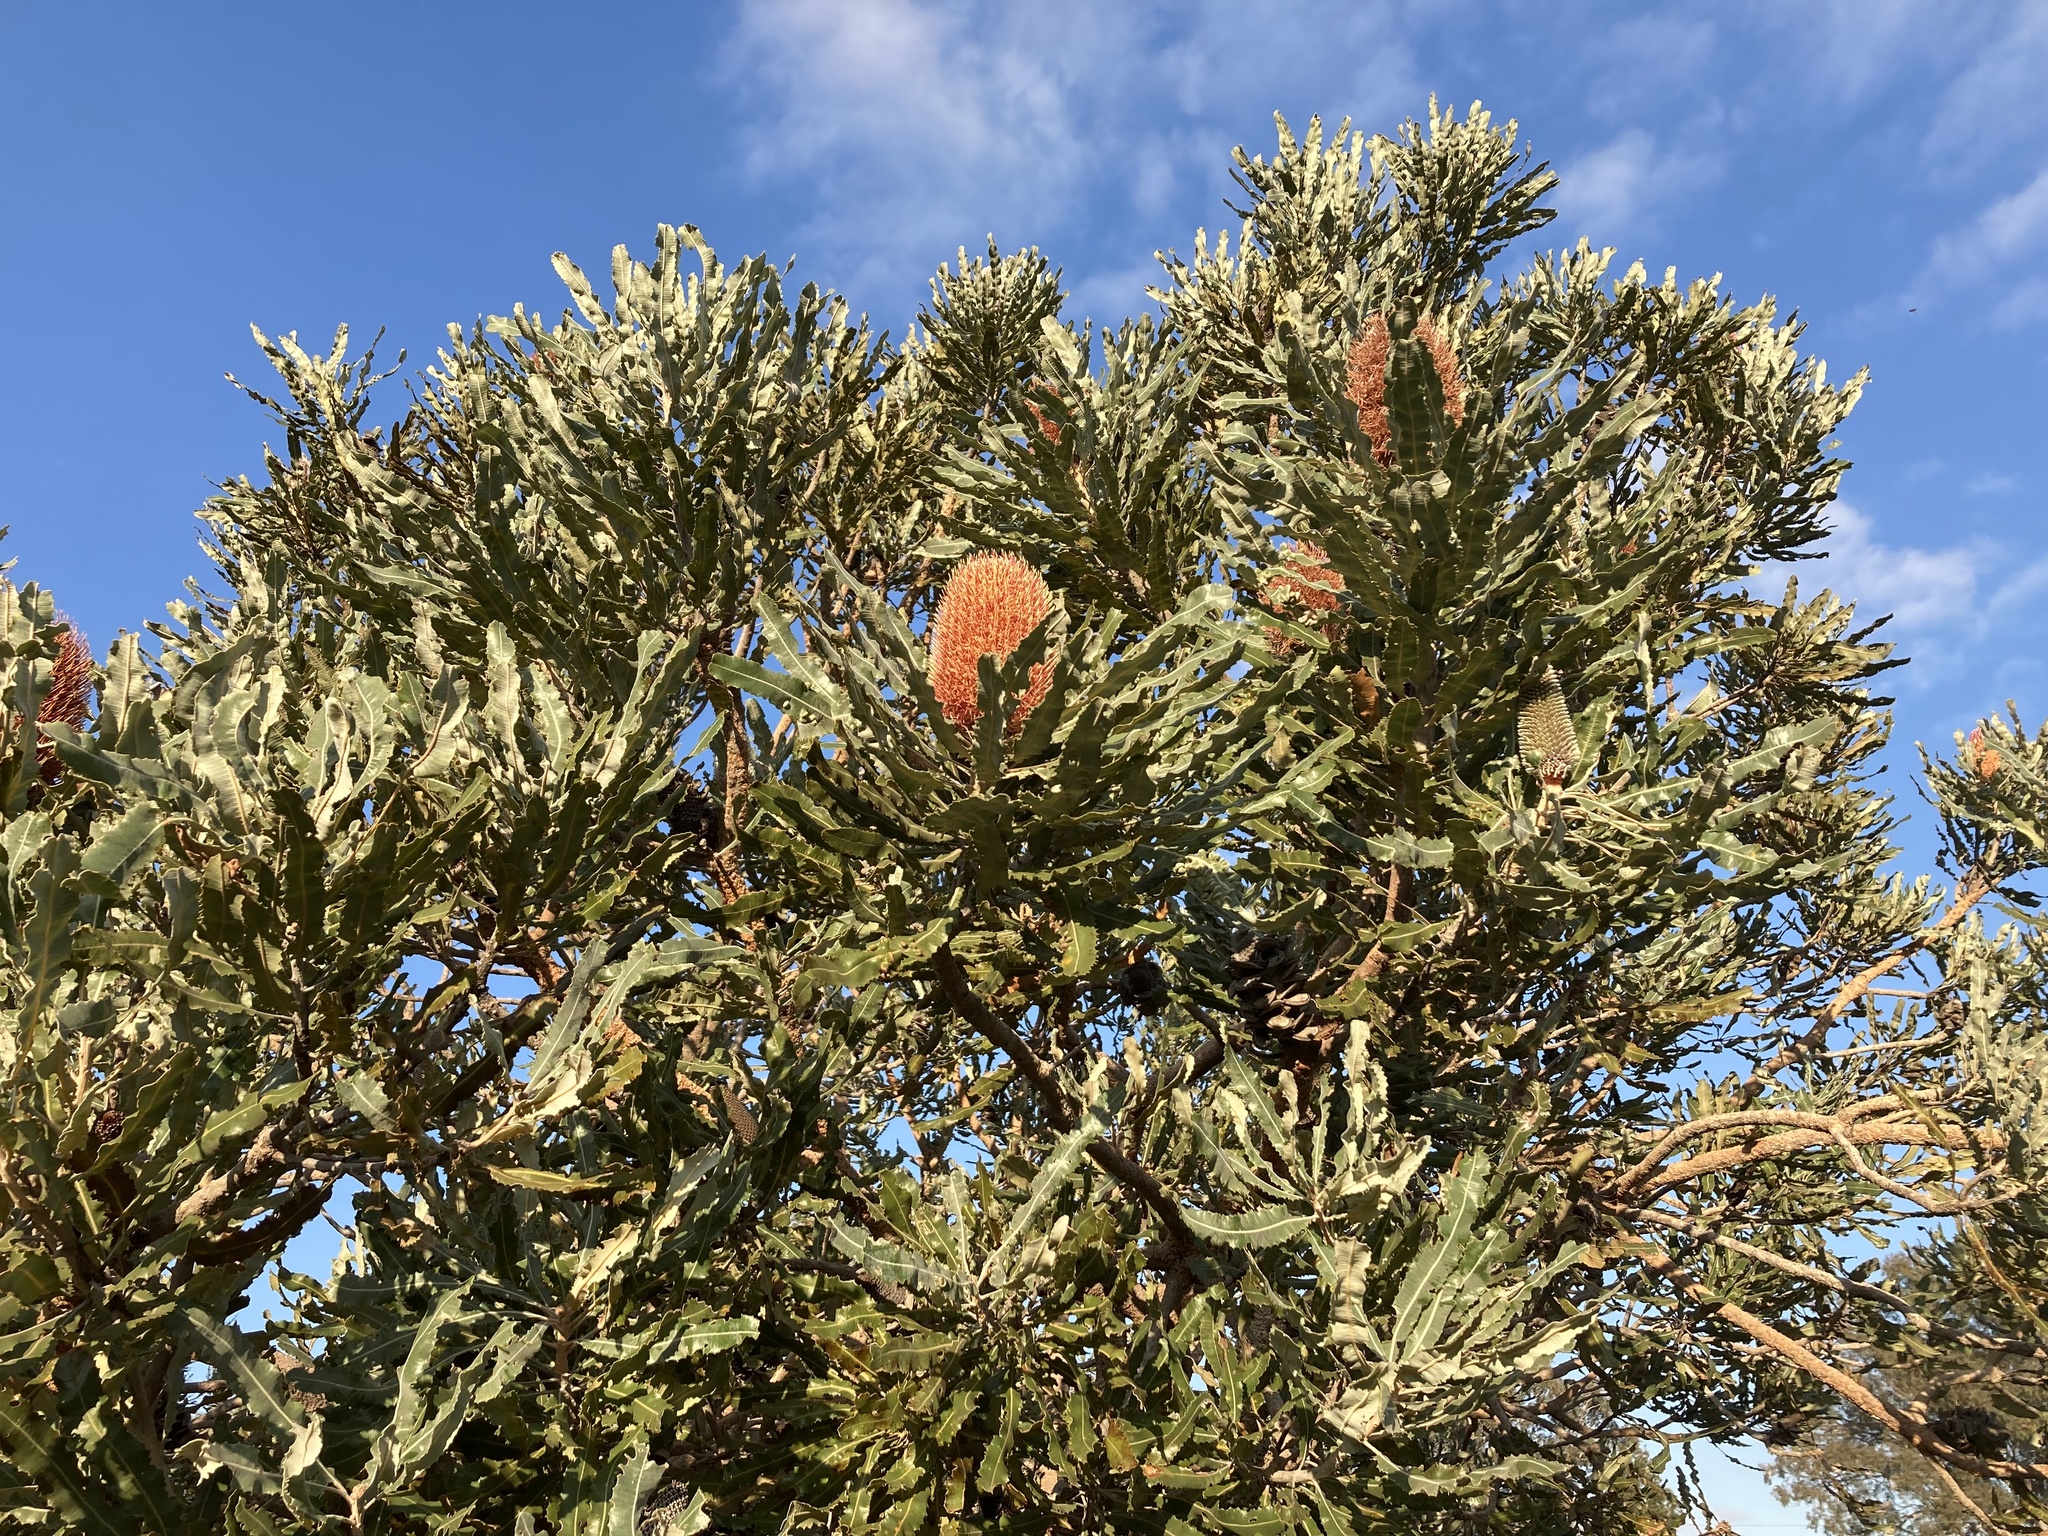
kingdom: Plantae
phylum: Tracheophyta
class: Magnoliopsida
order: Proteales
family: Proteaceae
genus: Banksia
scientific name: Banksia menziesii
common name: Menzie's banksia
